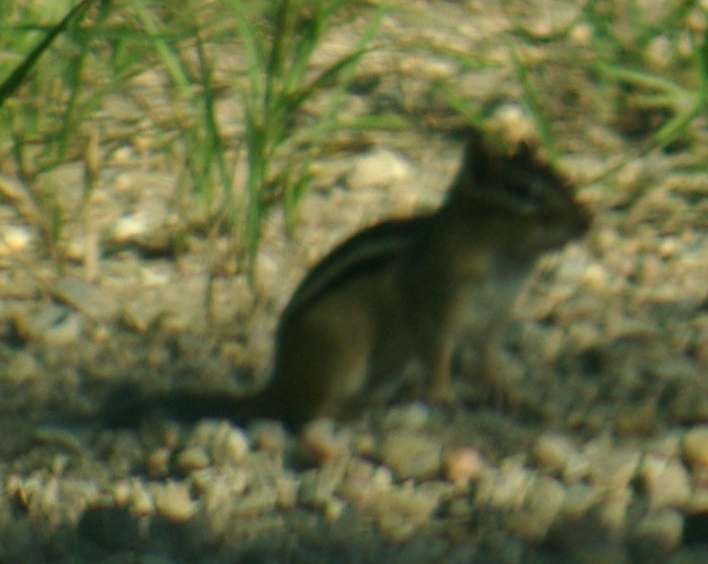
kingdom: Animalia
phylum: Chordata
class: Mammalia
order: Rodentia
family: Sciuridae
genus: Tamias
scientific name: Tamias striatus
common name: Eastern chipmunk
